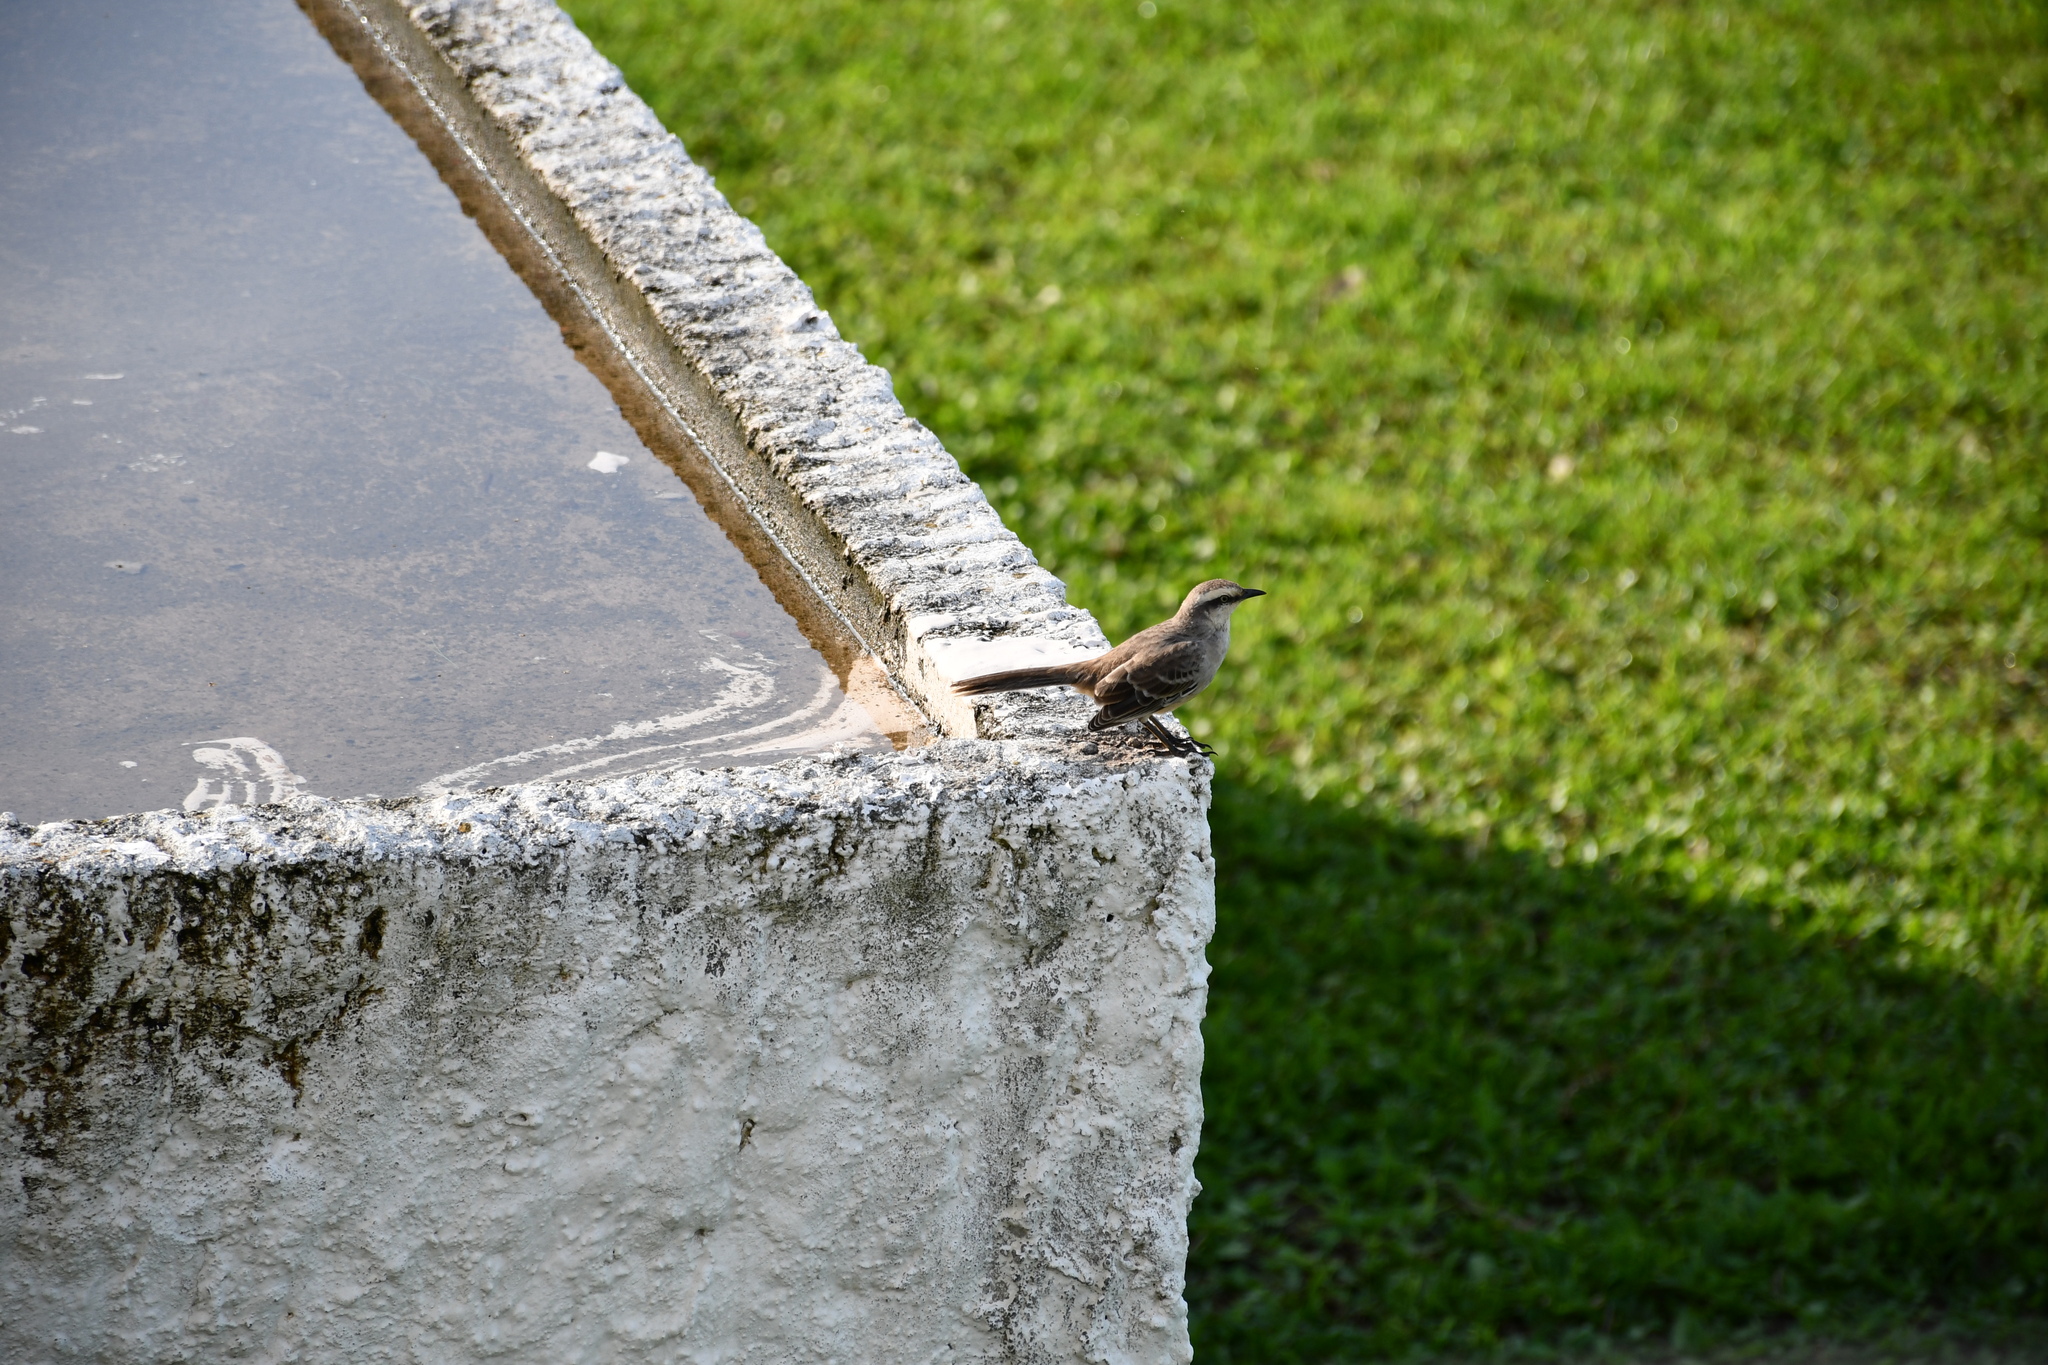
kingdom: Animalia
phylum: Chordata
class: Aves
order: Passeriformes
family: Mimidae
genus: Mimus
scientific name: Mimus saturninus
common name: Chalk-browed mockingbird
